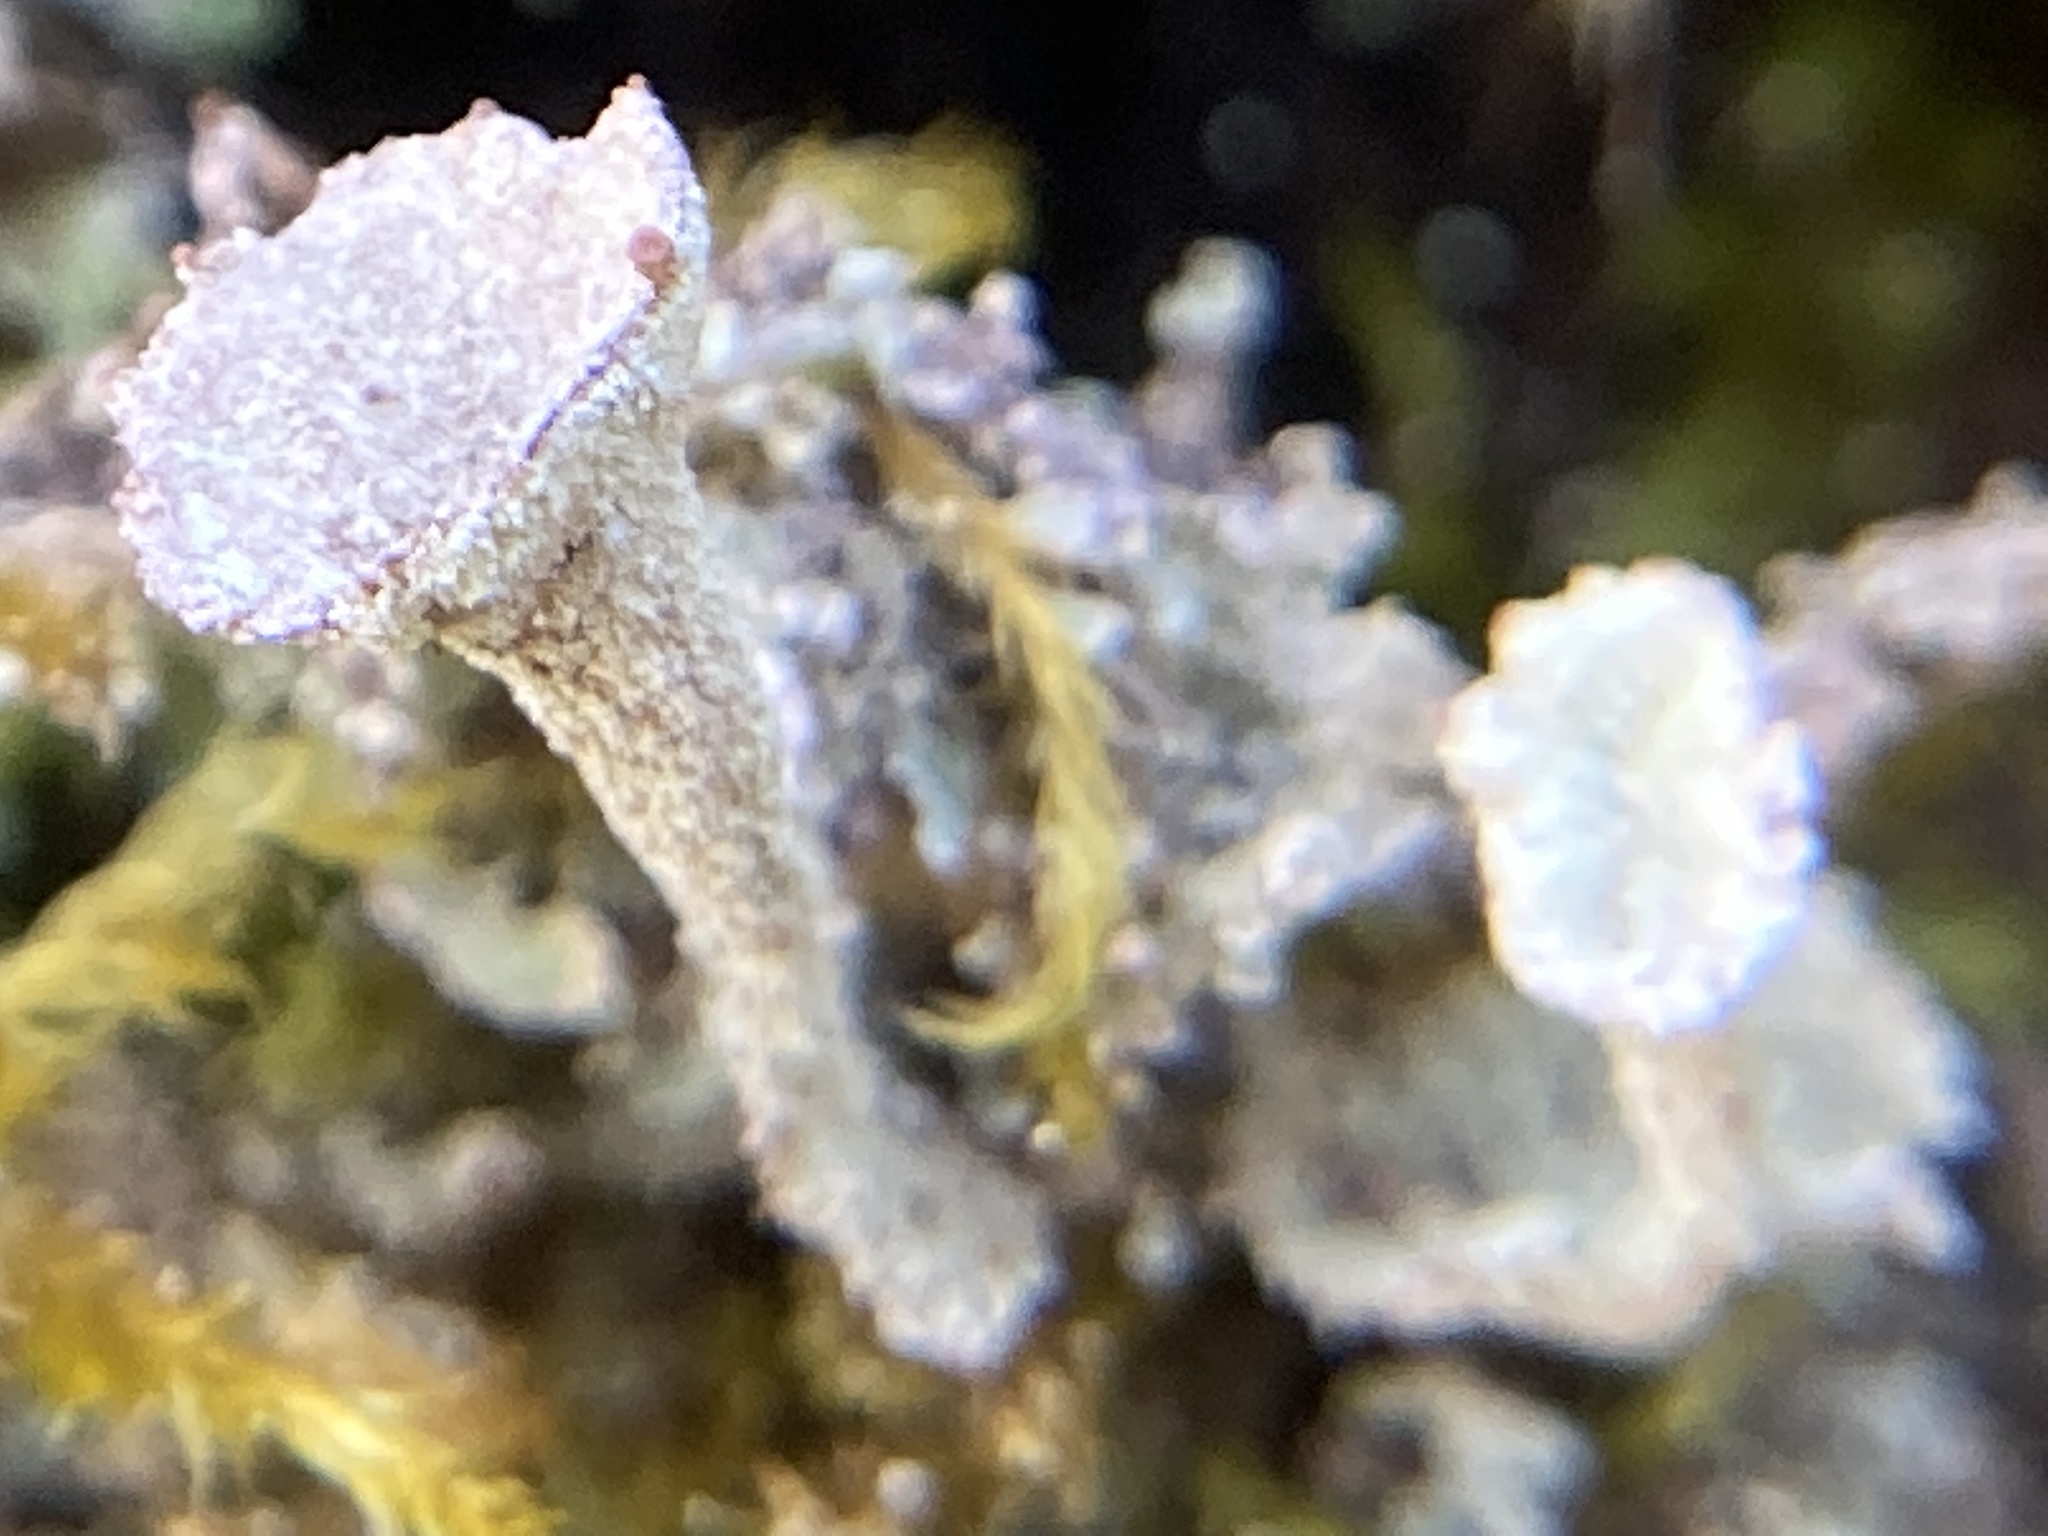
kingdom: Fungi
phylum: Ascomycota
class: Lecanoromycetes
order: Lecanorales
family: Cladoniaceae
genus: Cladonia
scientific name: Cladonia chlorophaea
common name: Mealy pixie cup
